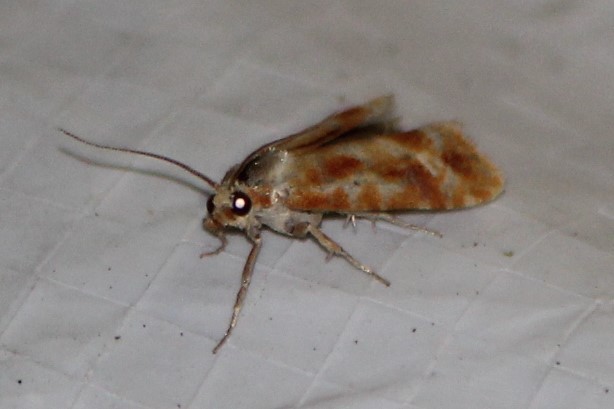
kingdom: Animalia
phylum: Arthropoda
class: Insecta
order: Lepidoptera
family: Tortricidae
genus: Rhyacionia
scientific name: Rhyacionia buoliana
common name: European pine shoot moth
